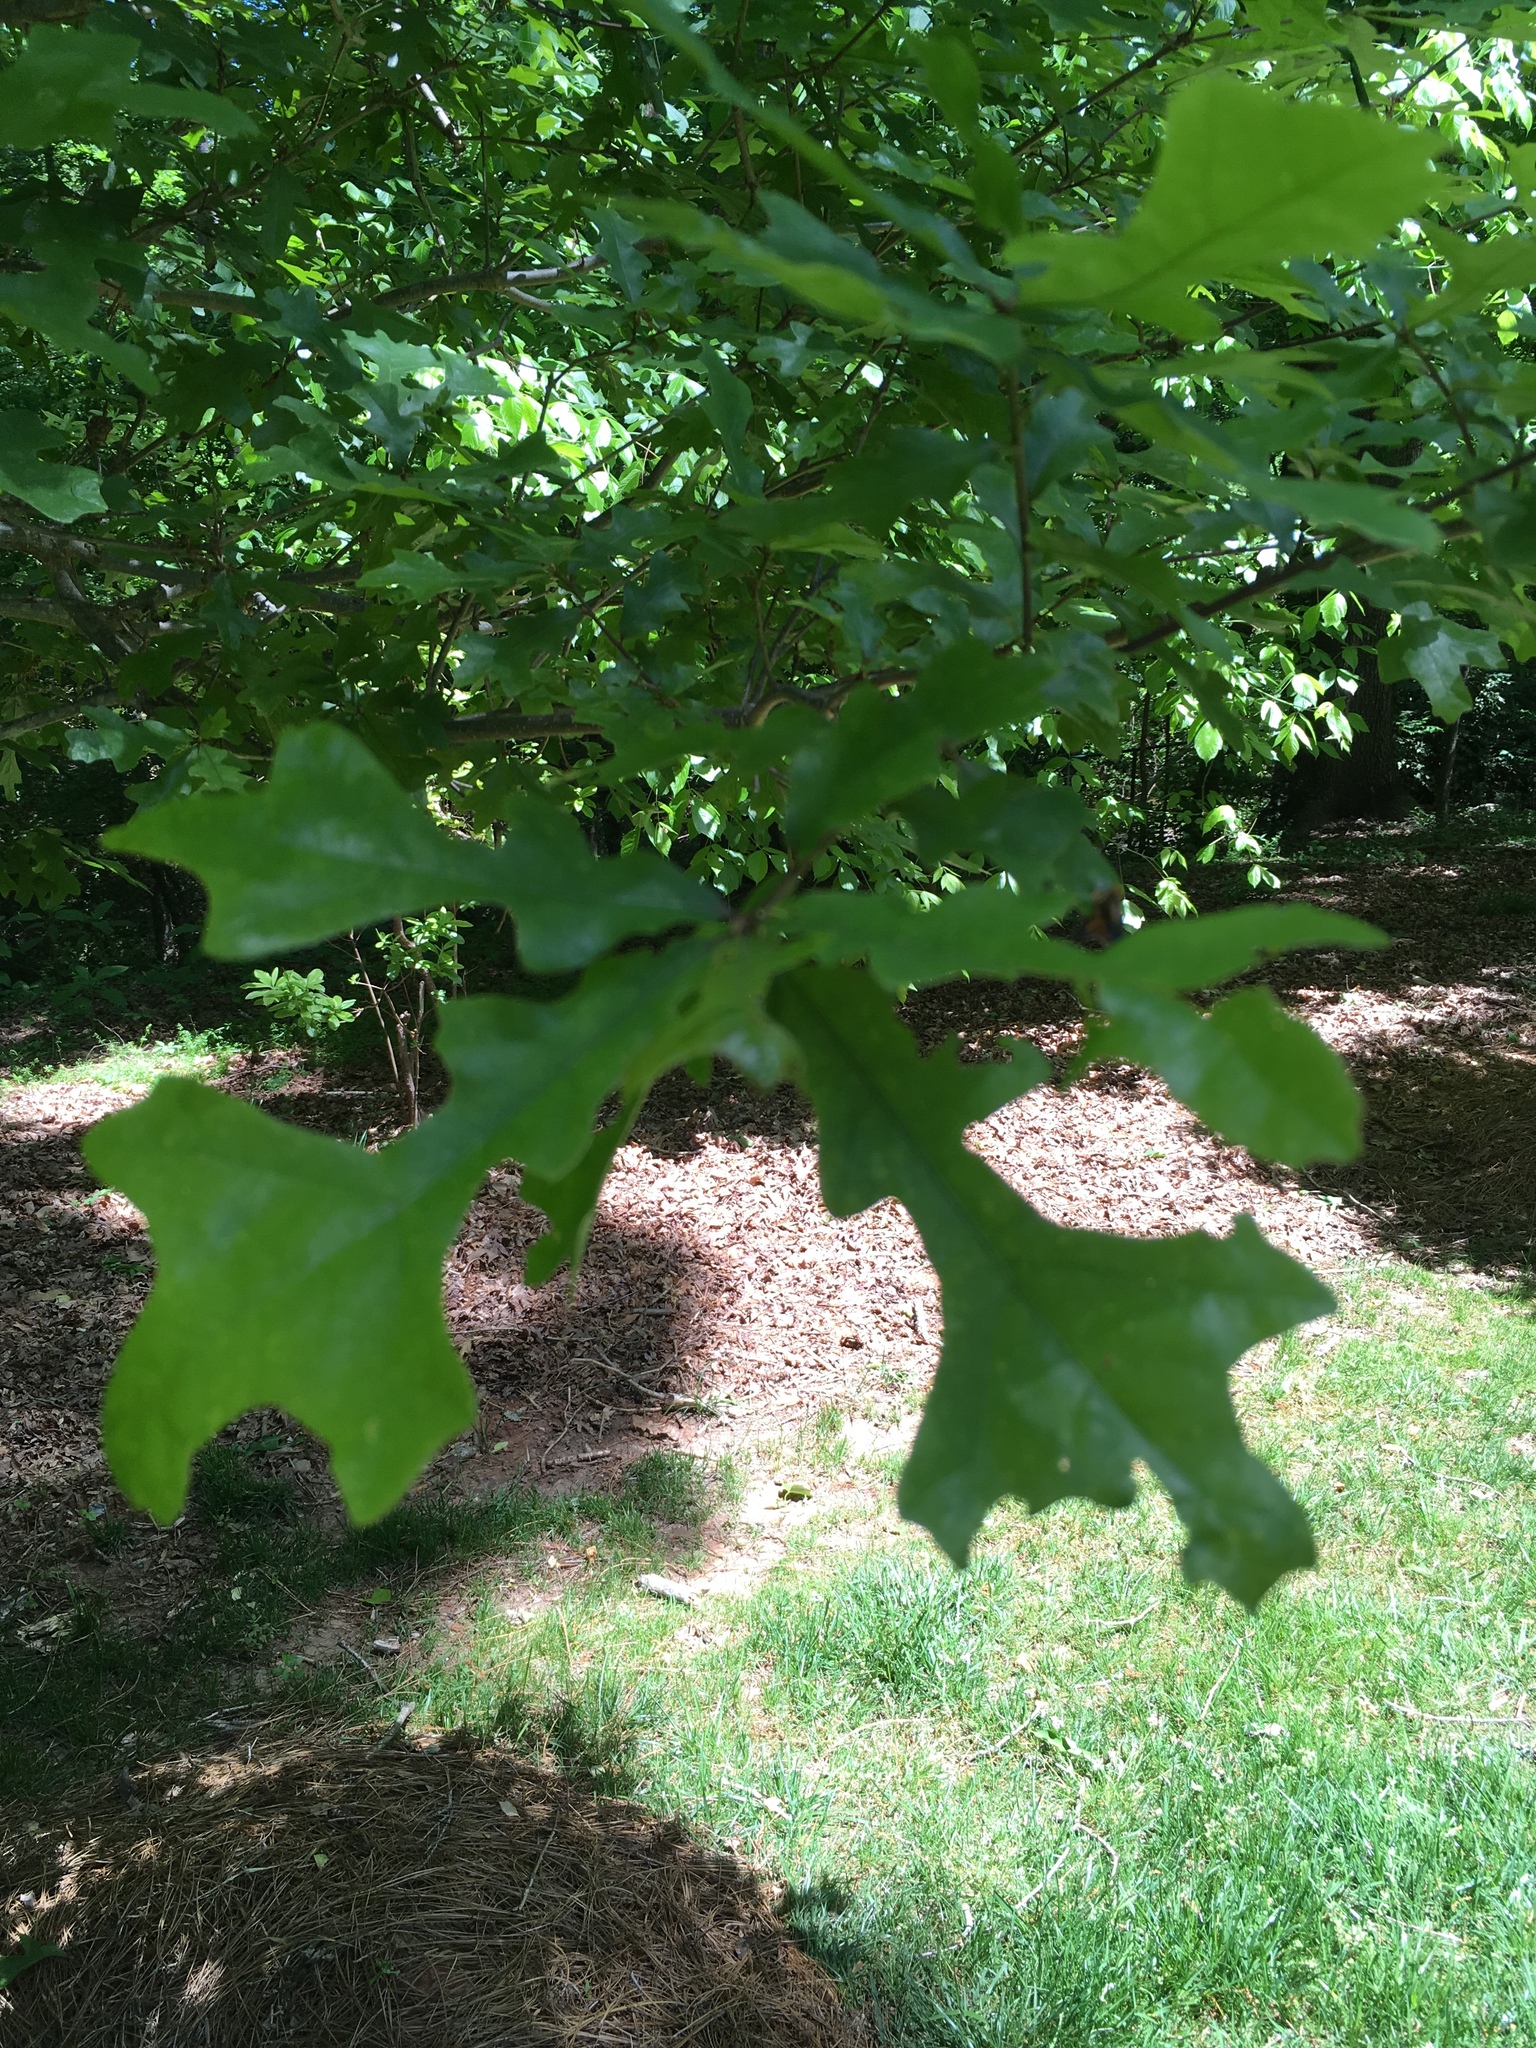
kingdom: Plantae
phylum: Tracheophyta
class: Magnoliopsida
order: Fagales
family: Fagaceae
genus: Quercus
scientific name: Quercus stellata
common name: Post oak
